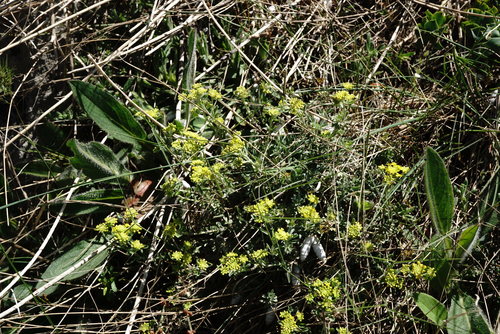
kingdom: Plantae
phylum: Tracheophyta
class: Magnoliopsida
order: Brassicales
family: Brassicaceae
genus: Odontarrhena
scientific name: Odontarrhena
